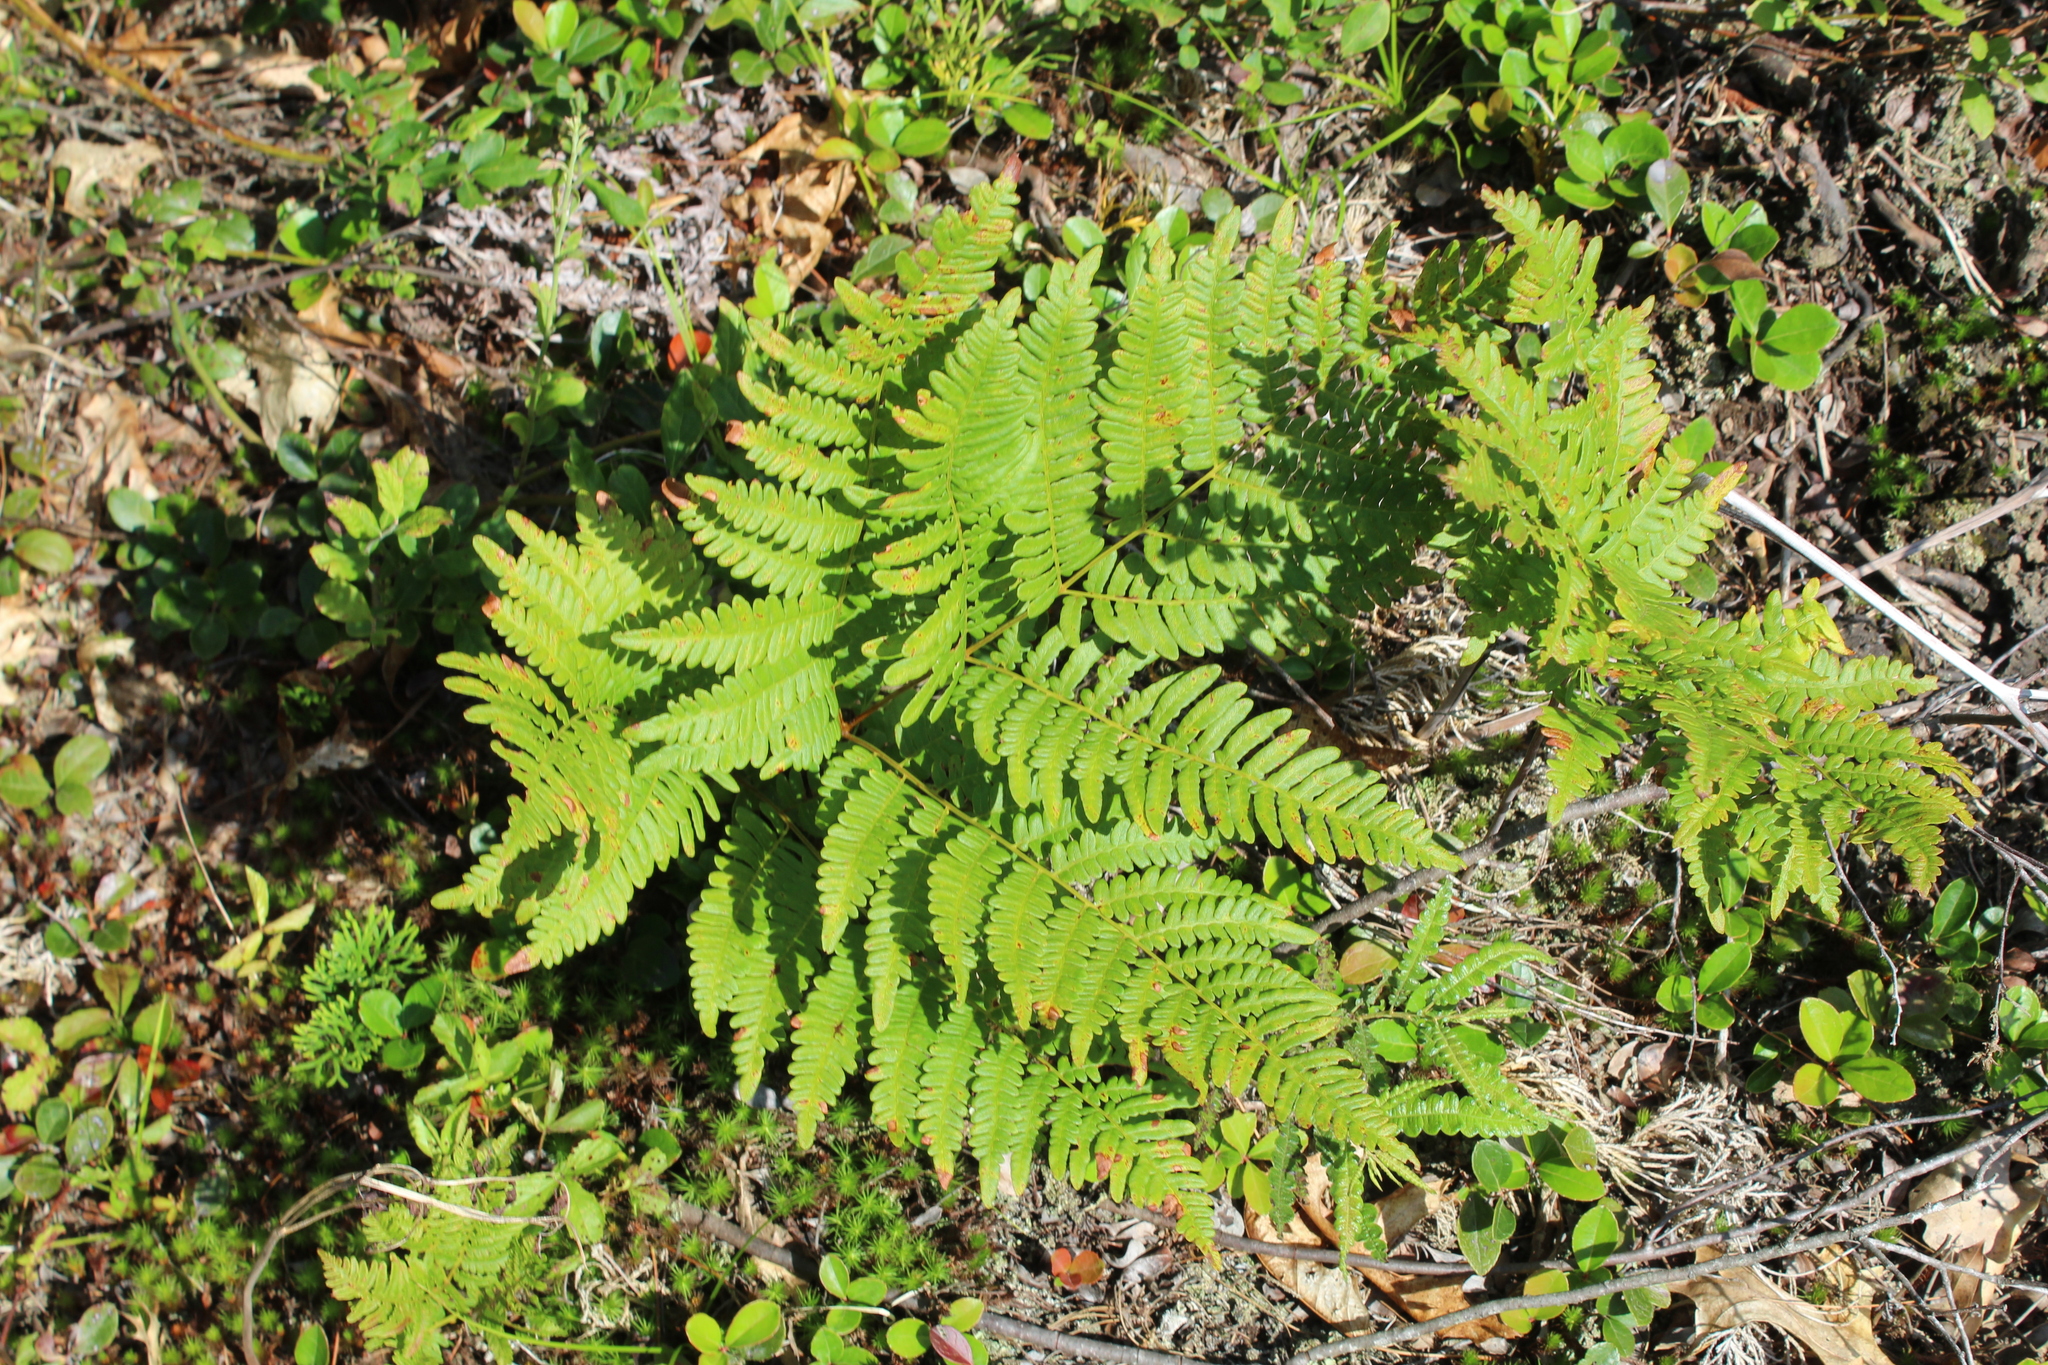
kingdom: Plantae
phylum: Tracheophyta
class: Polypodiopsida
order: Polypodiales
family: Dennstaedtiaceae
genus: Pteridium
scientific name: Pteridium aquilinum
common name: Bracken
